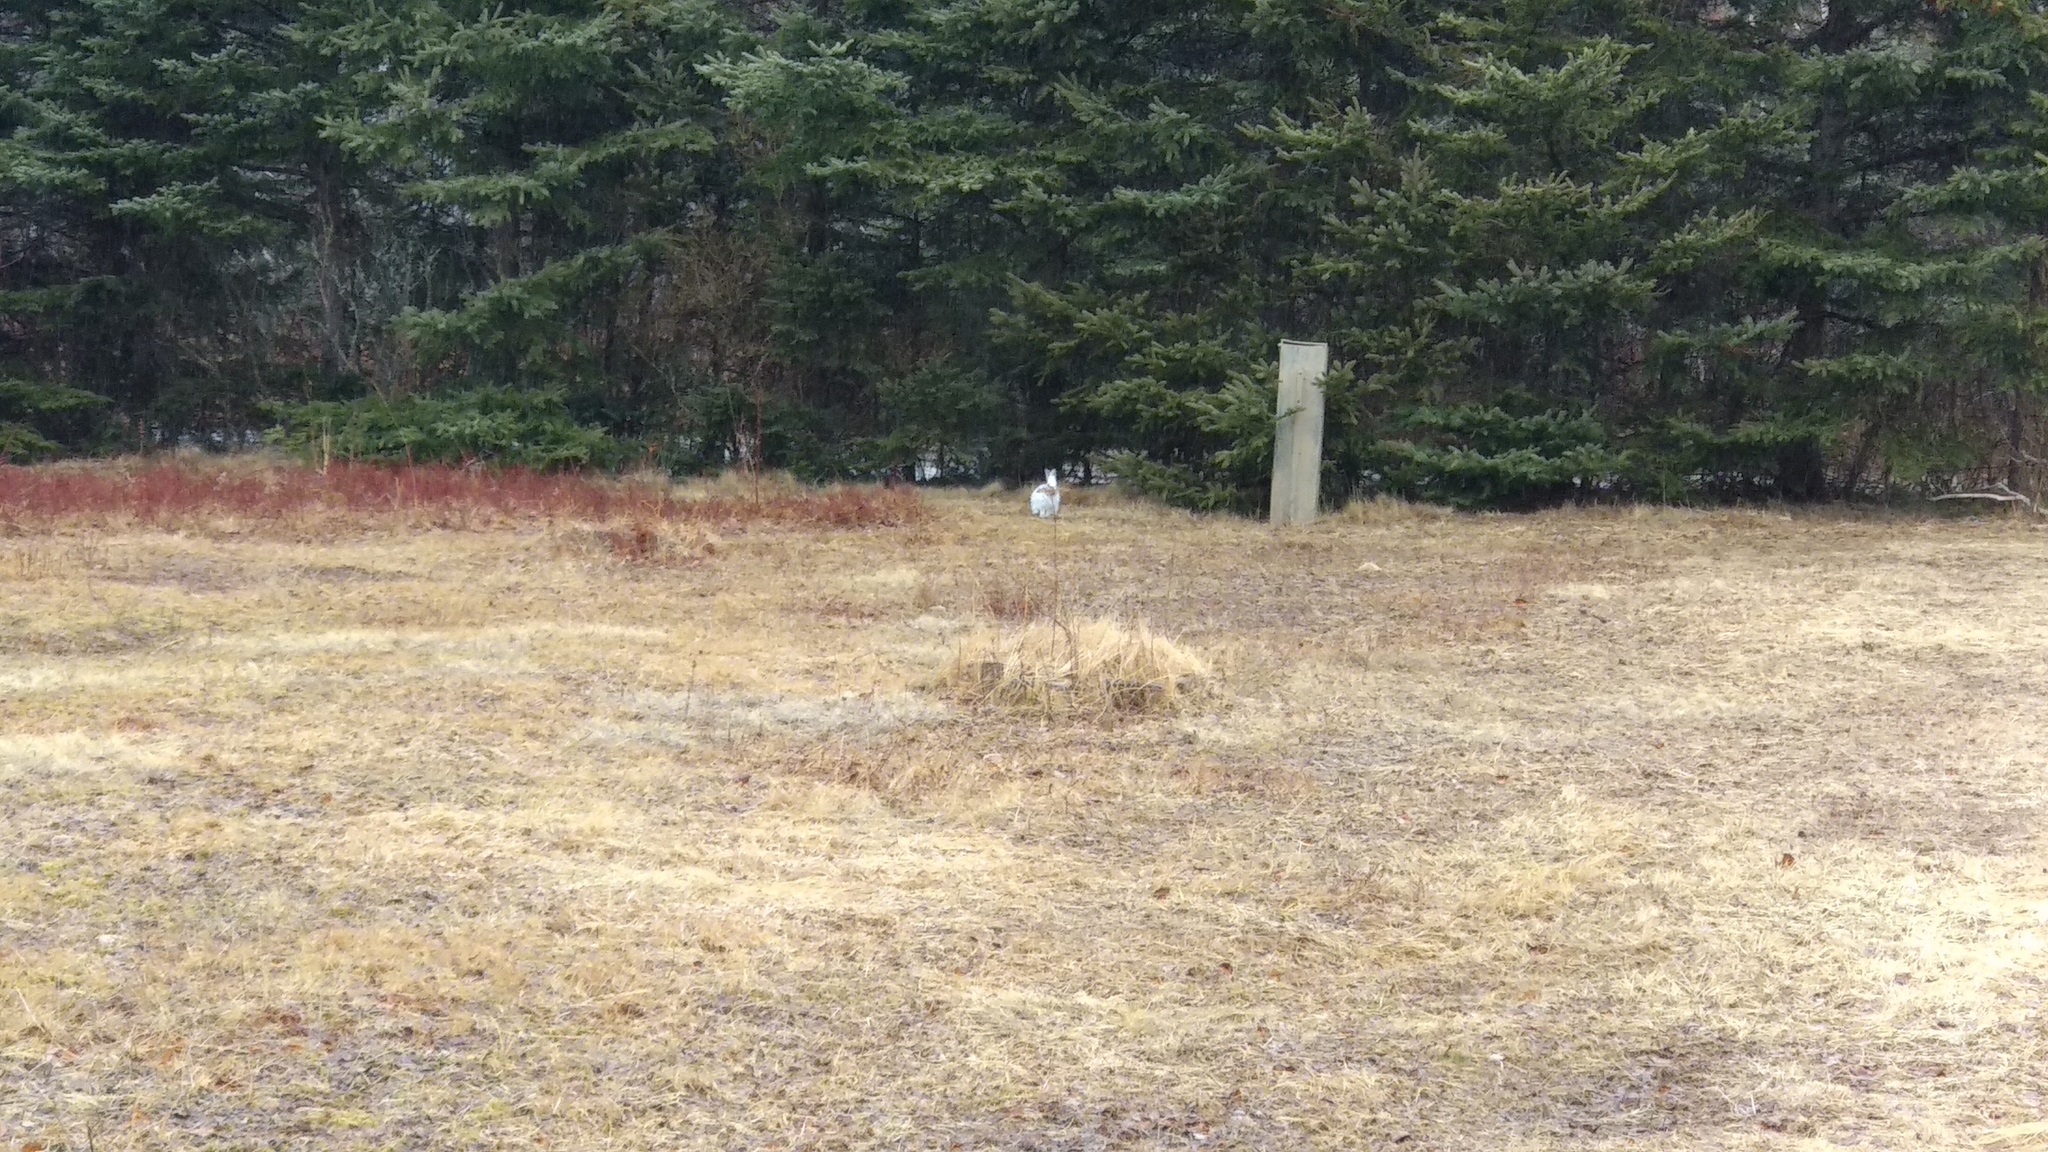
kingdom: Animalia
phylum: Chordata
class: Mammalia
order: Lagomorpha
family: Leporidae
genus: Lepus
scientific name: Lepus americanus
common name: Snowshoe hare
